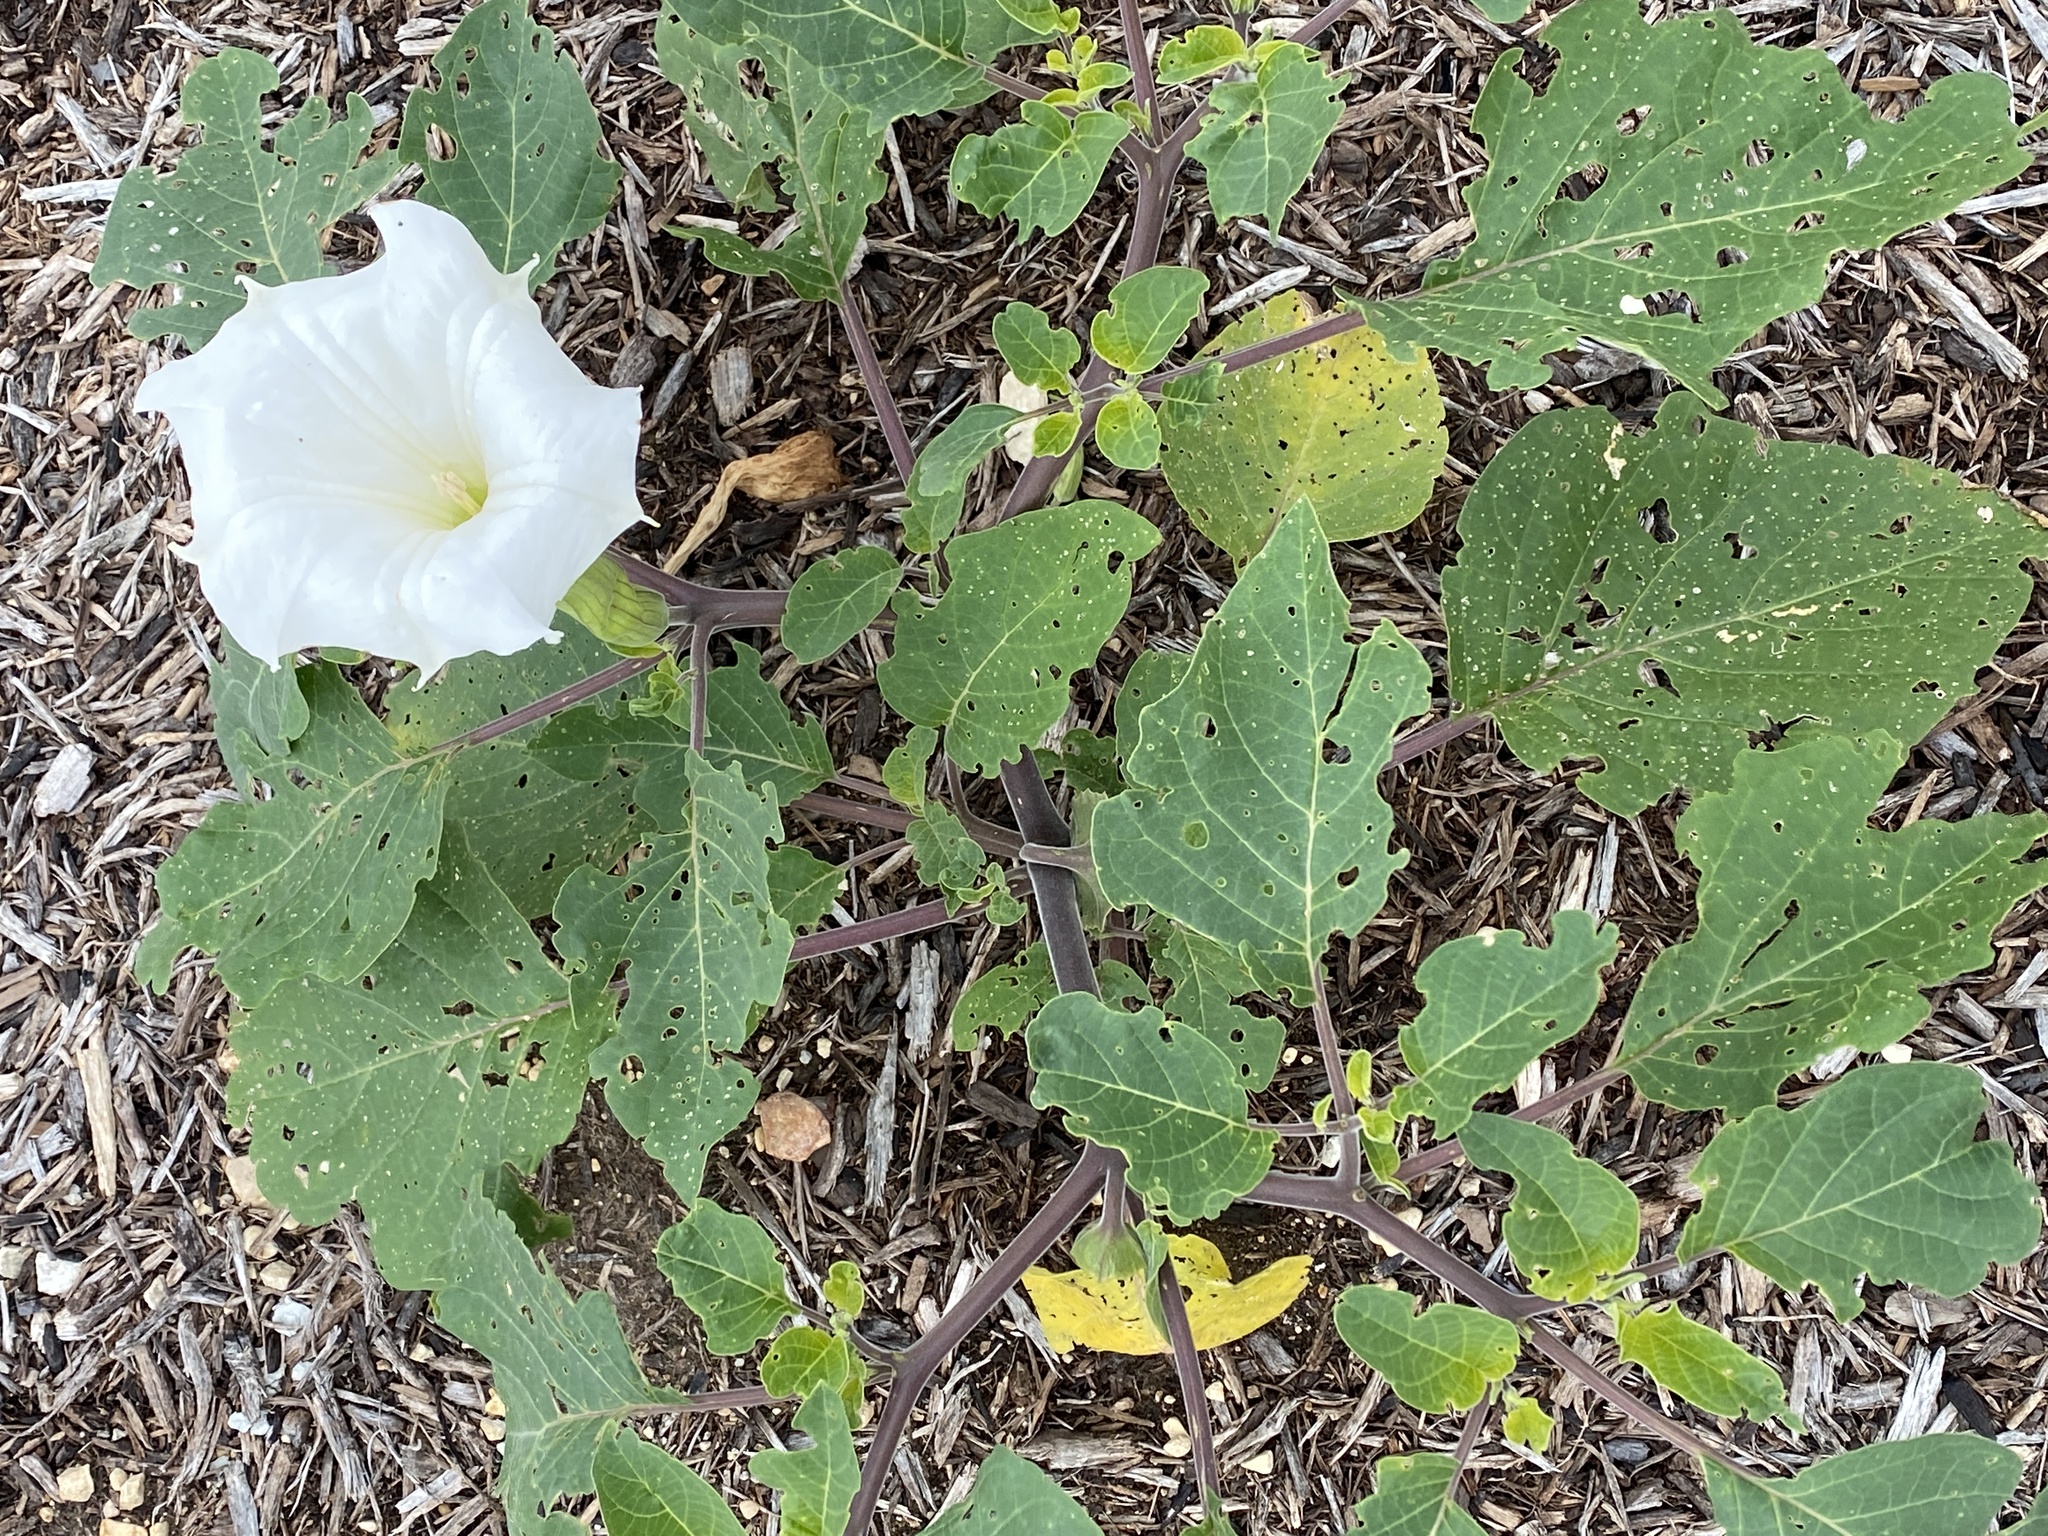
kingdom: Plantae
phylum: Tracheophyta
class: Magnoliopsida
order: Solanales
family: Solanaceae
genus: Datura
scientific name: Datura wrightii
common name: Sacred thorn-apple
